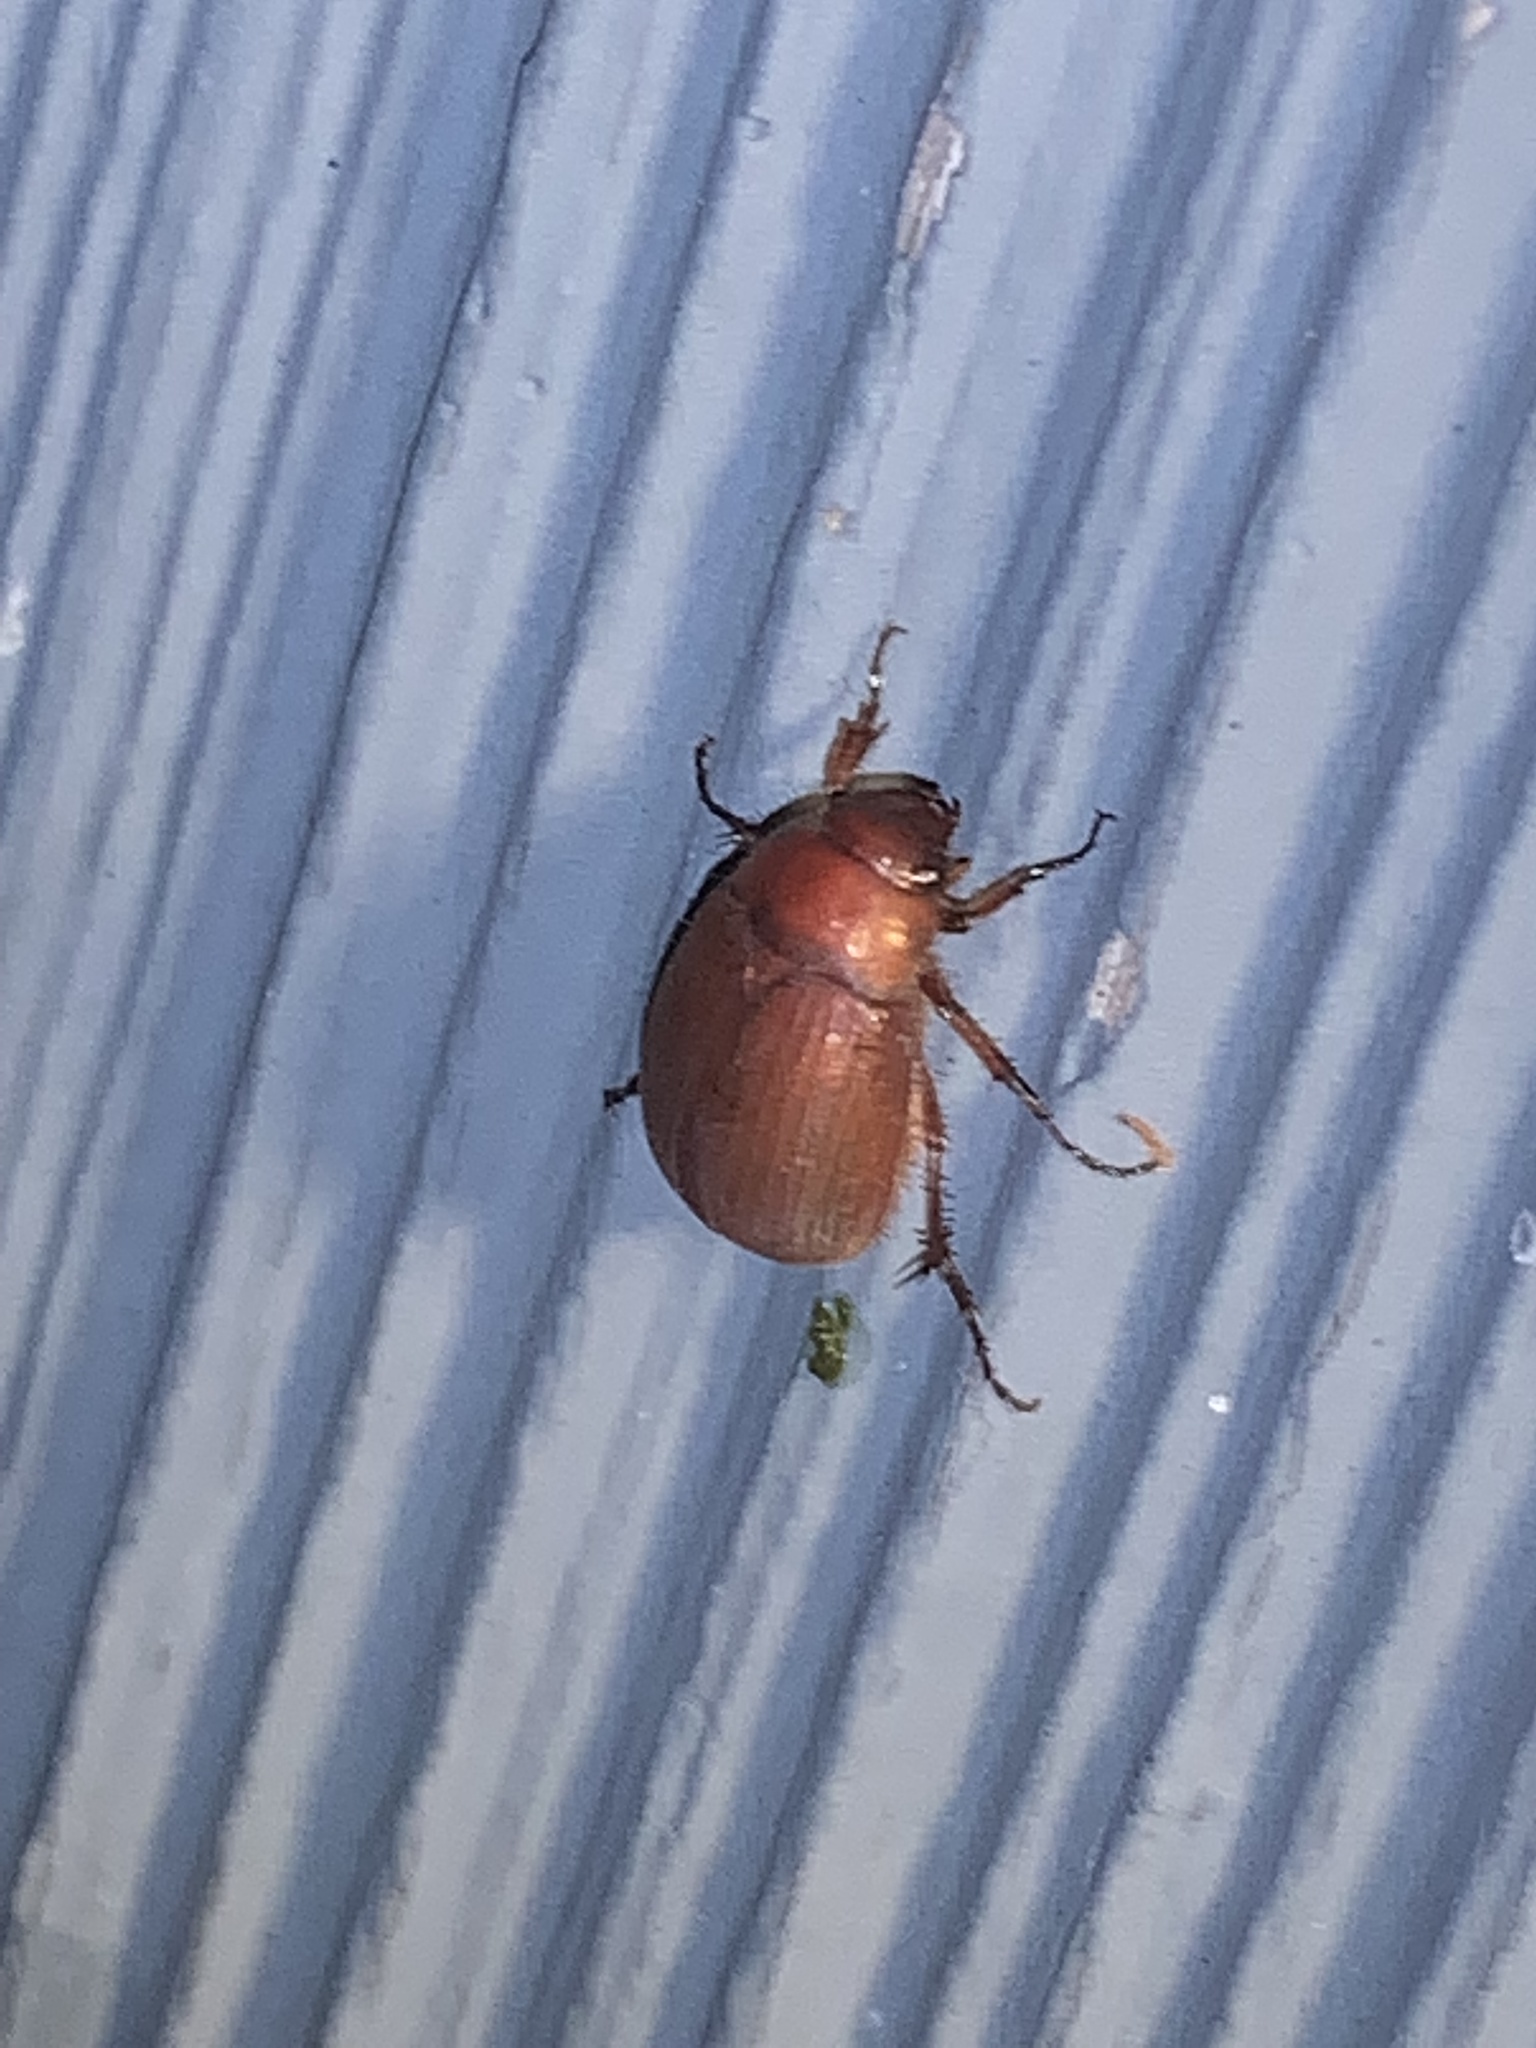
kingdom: Animalia
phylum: Arthropoda
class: Insecta
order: Coleoptera
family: Scarabaeidae
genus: Maladera
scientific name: Maladera formosae
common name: Asiatic garden beetle
